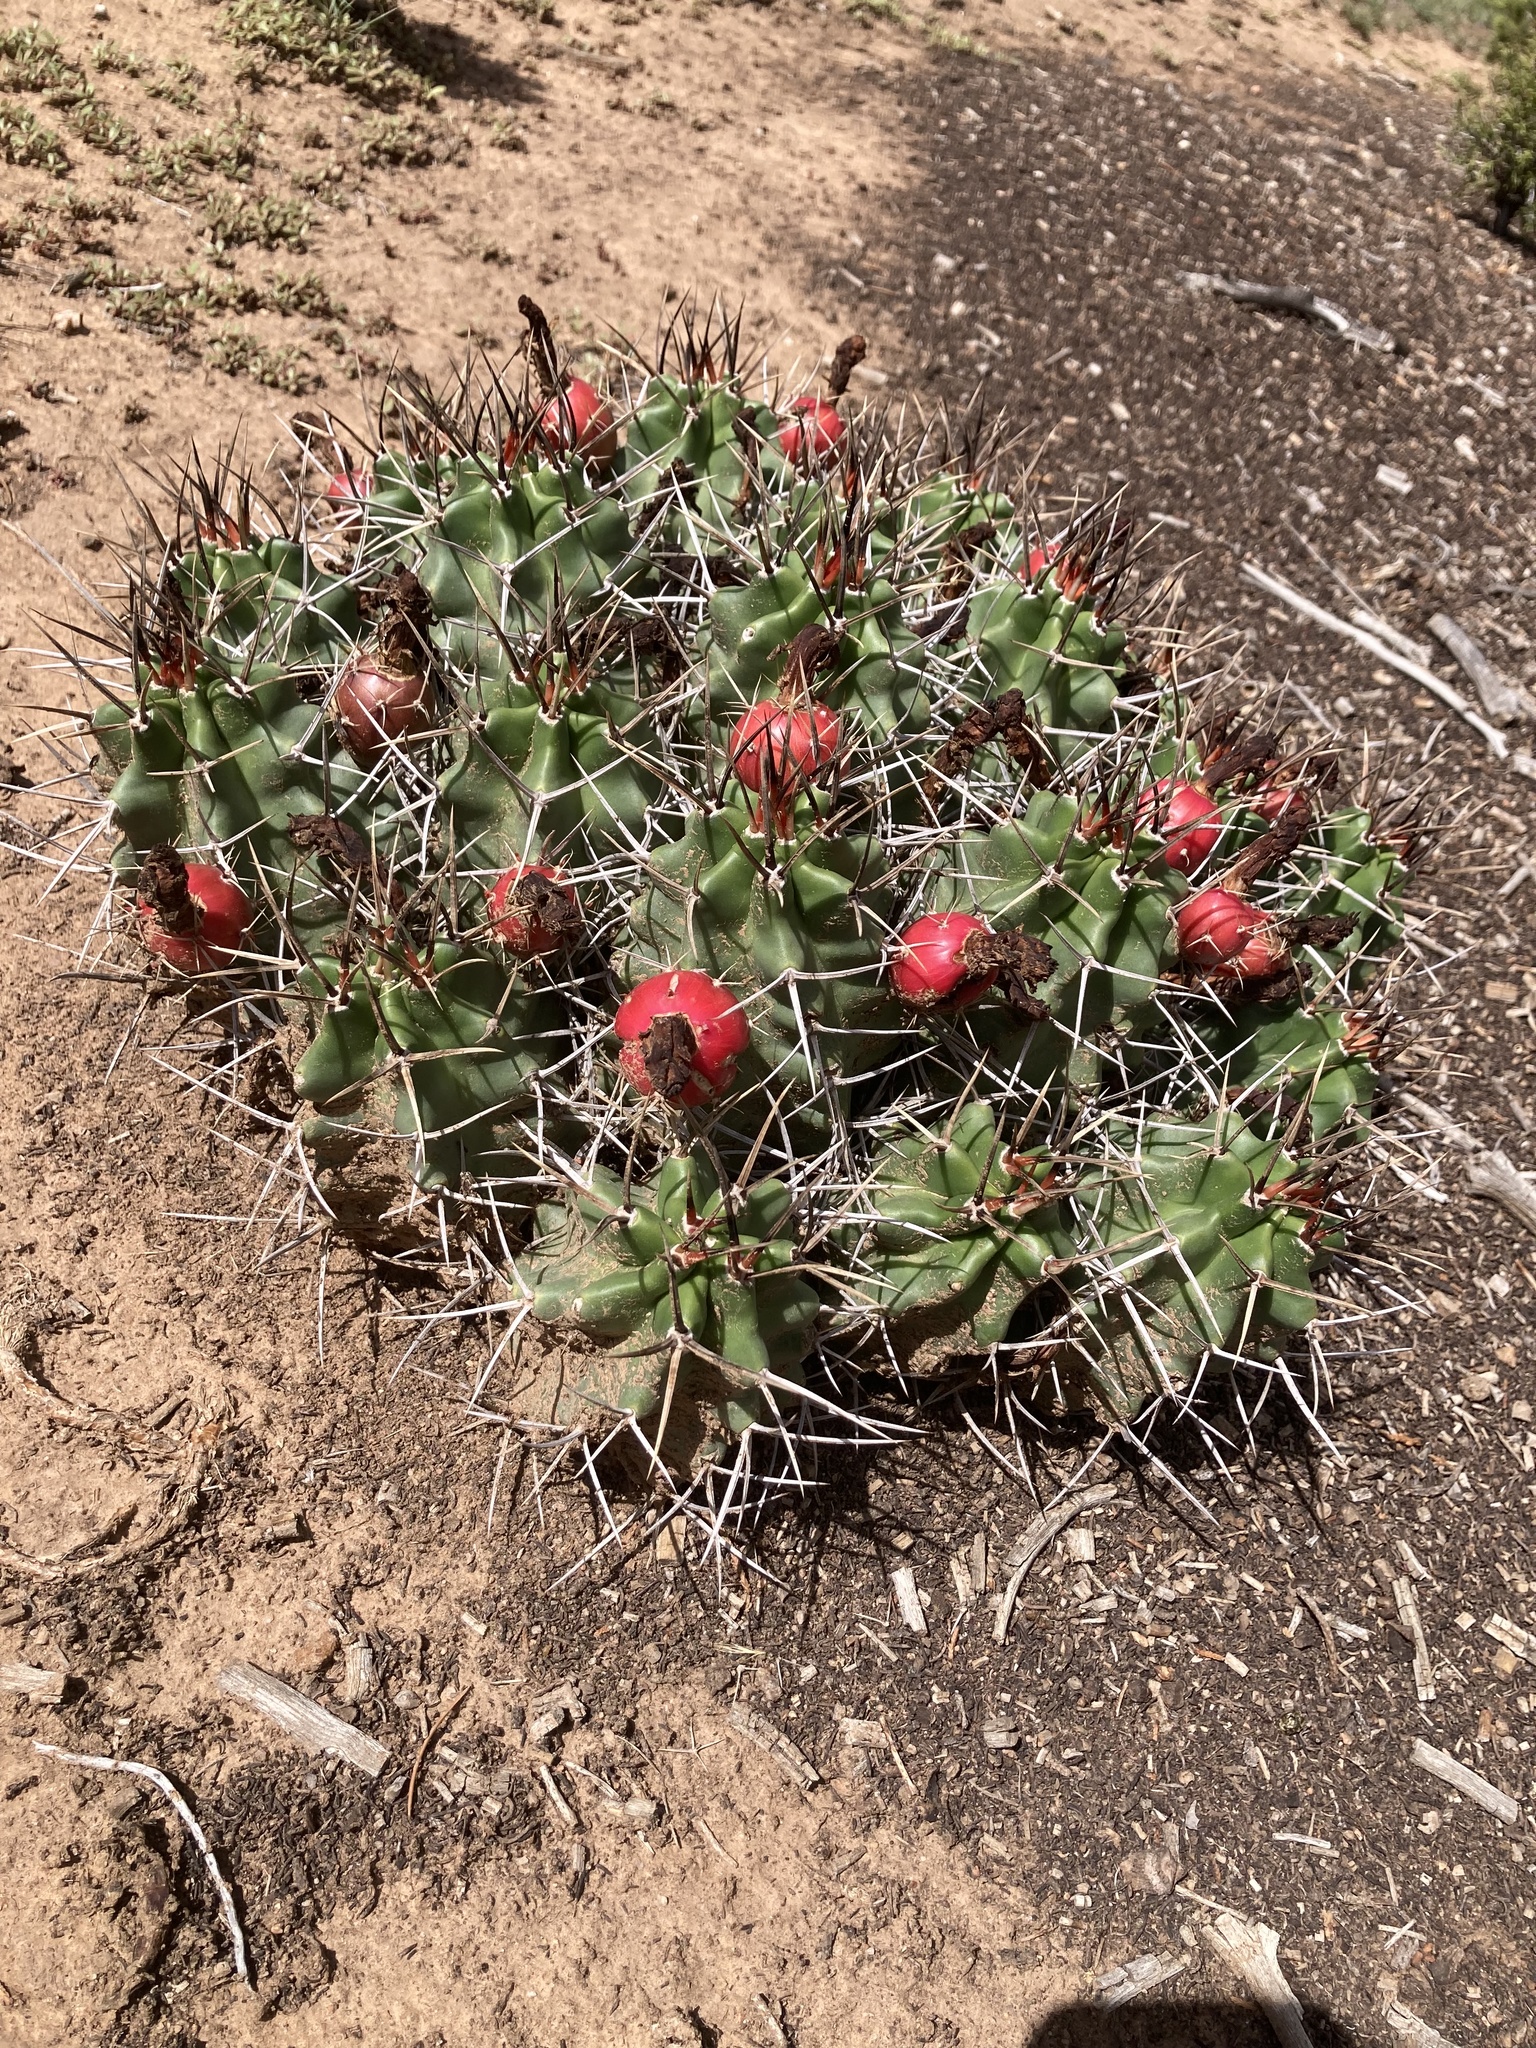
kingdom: Plantae
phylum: Tracheophyta
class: Magnoliopsida
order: Caryophyllales
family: Cactaceae
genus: Echinocereus
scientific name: Echinocereus triglochidiatus
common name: Claretcup hedgehog
